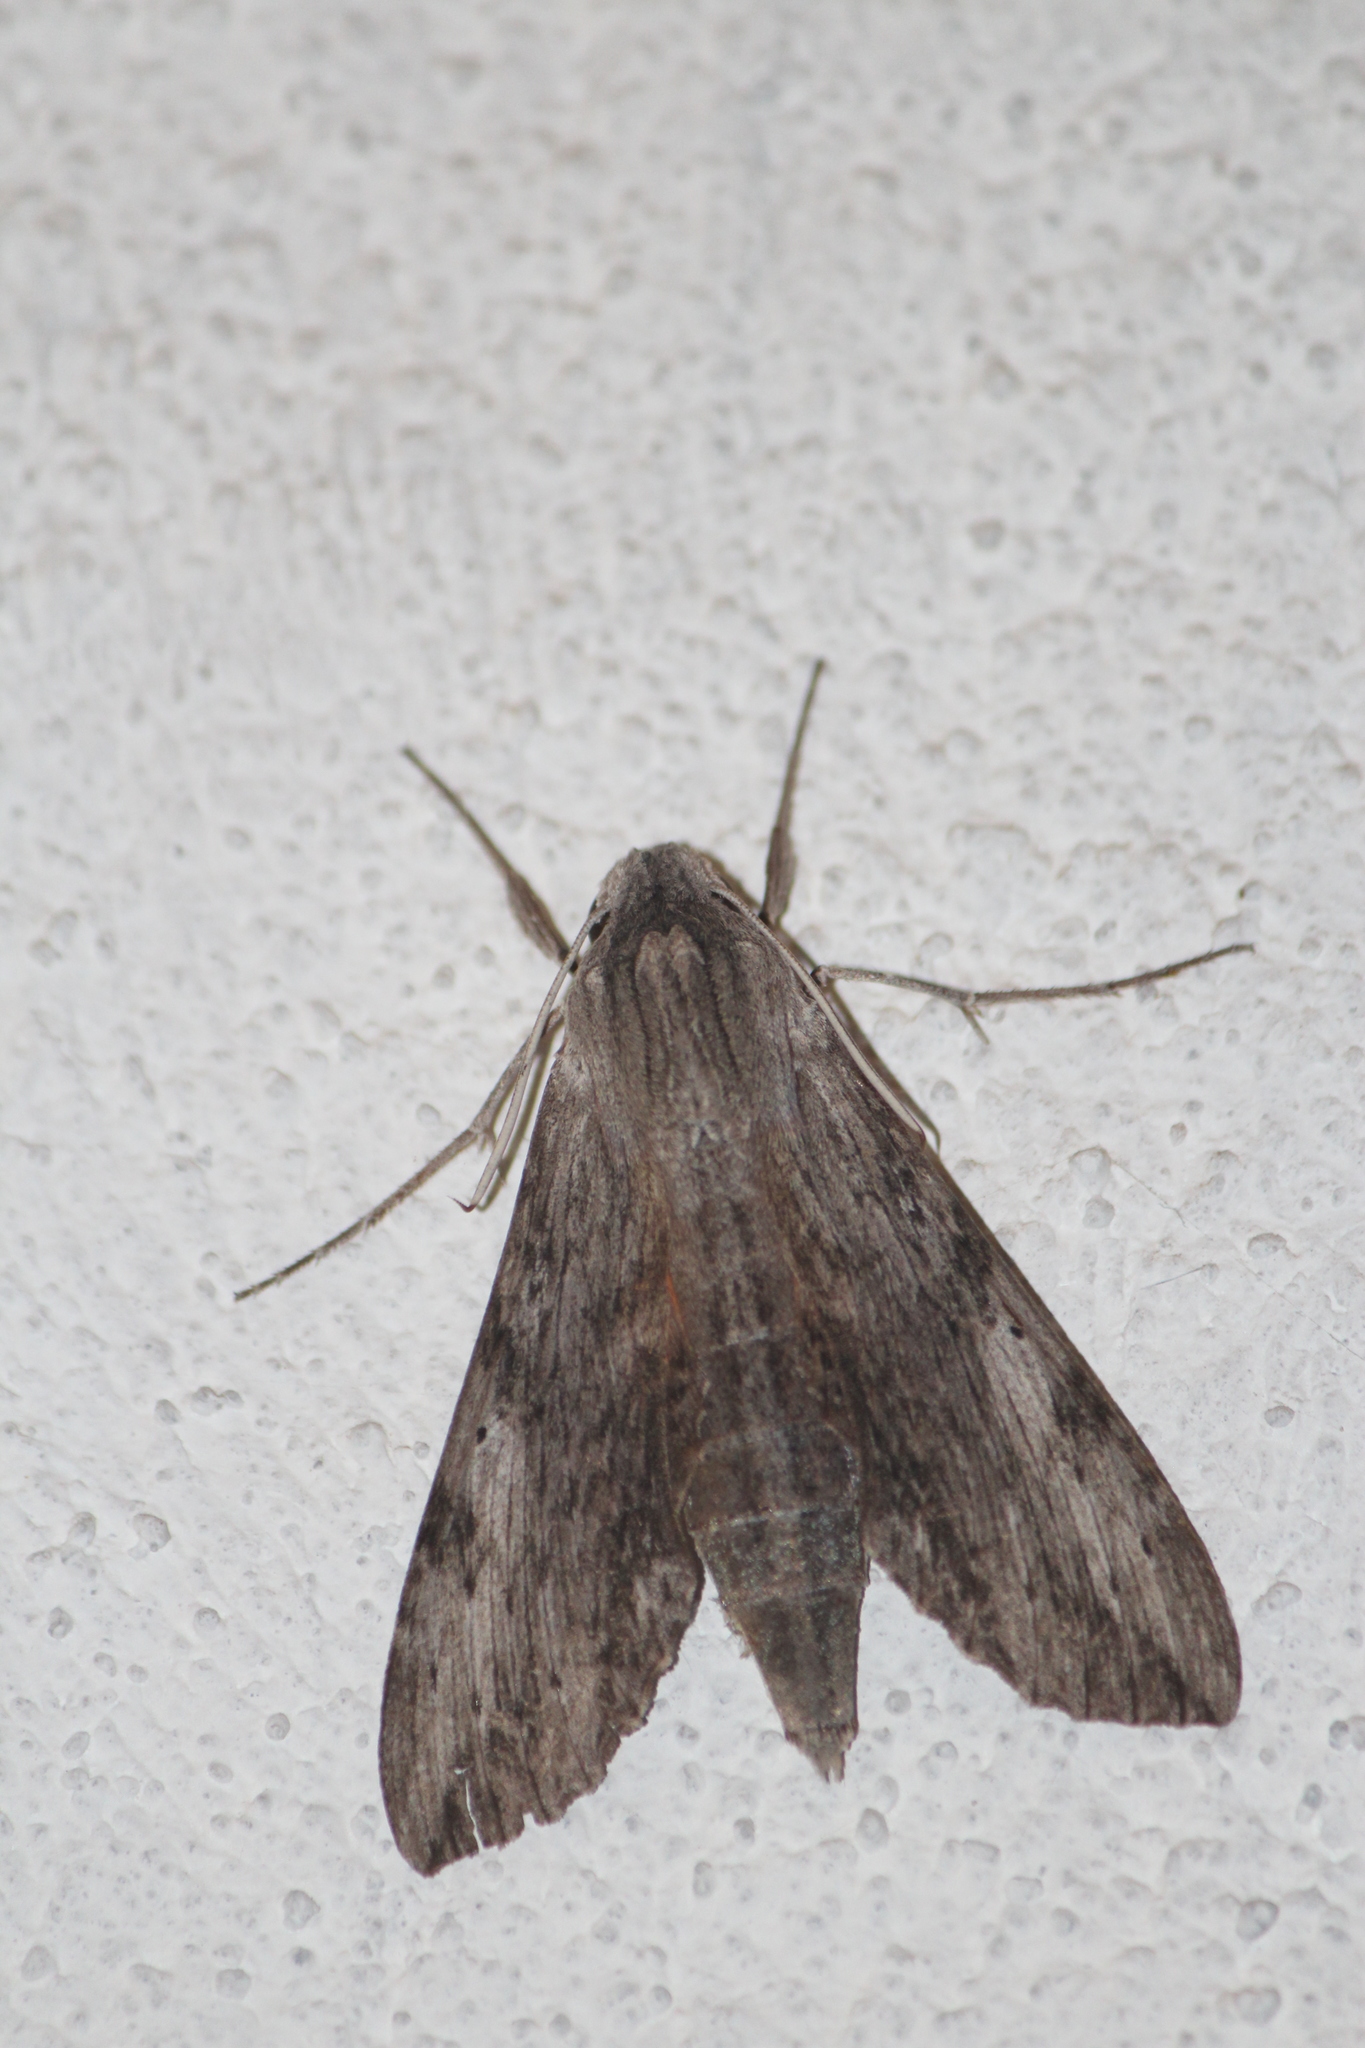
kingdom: Animalia
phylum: Arthropoda
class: Insecta
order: Lepidoptera
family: Sphingidae
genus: Erinnyis
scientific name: Erinnyis oenotrus
